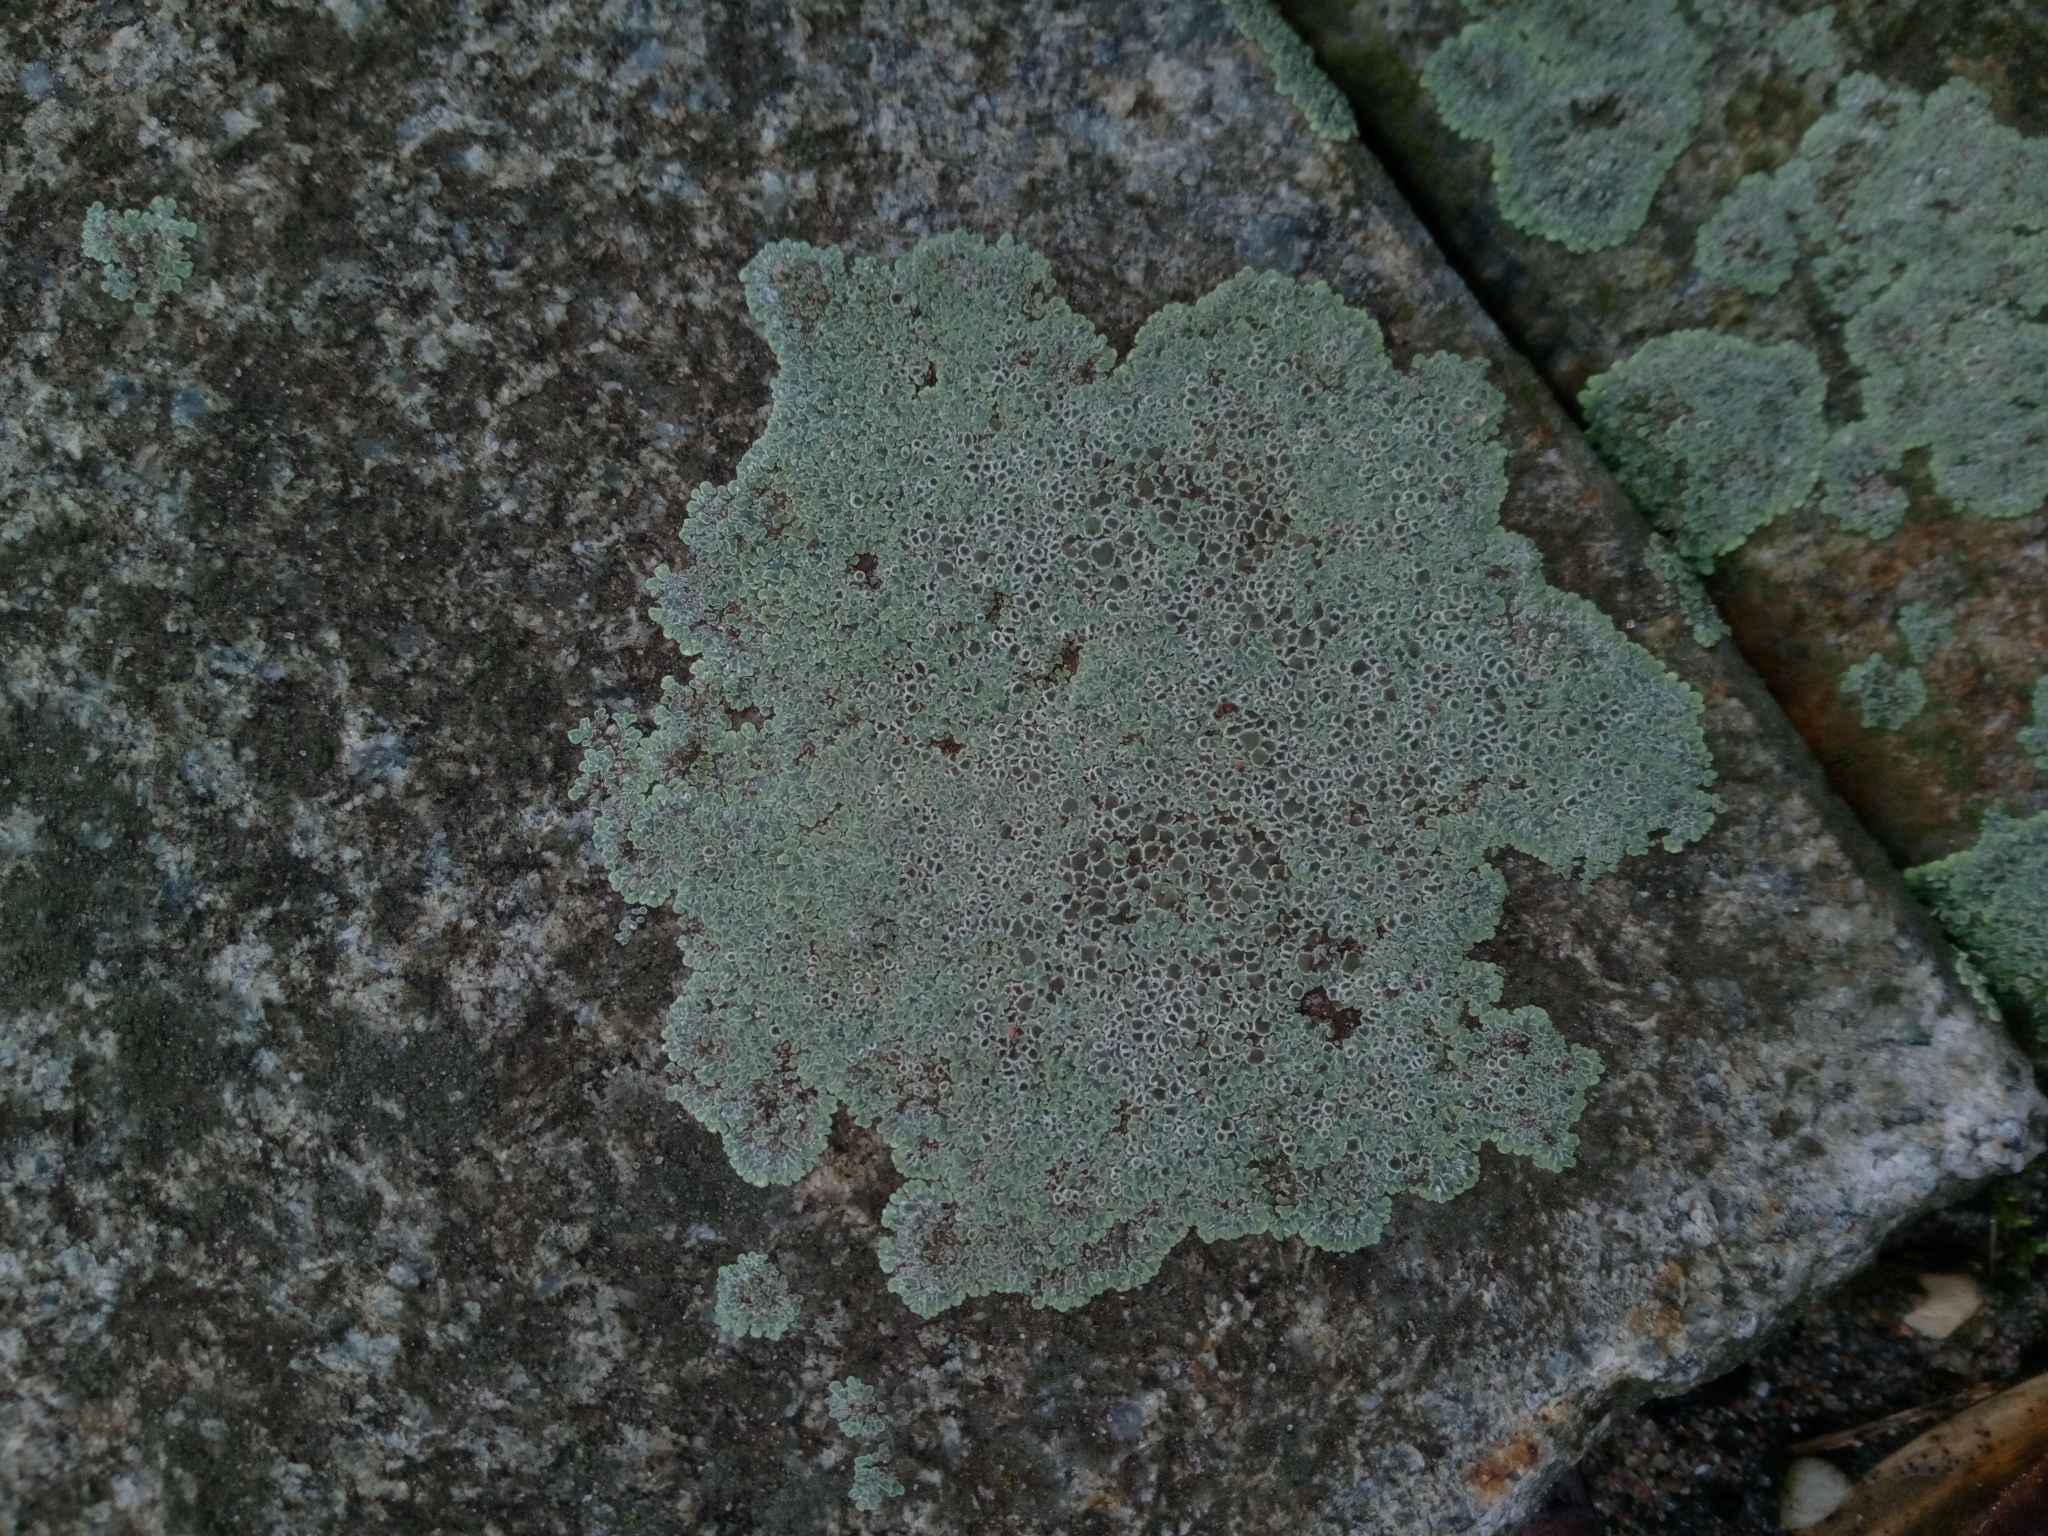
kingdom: Fungi
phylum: Ascomycota
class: Lecanoromycetes
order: Lecanorales
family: Lecanoraceae
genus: Protoparmeliopsis
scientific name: Protoparmeliopsis muralis
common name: Stonewall rim lichen
